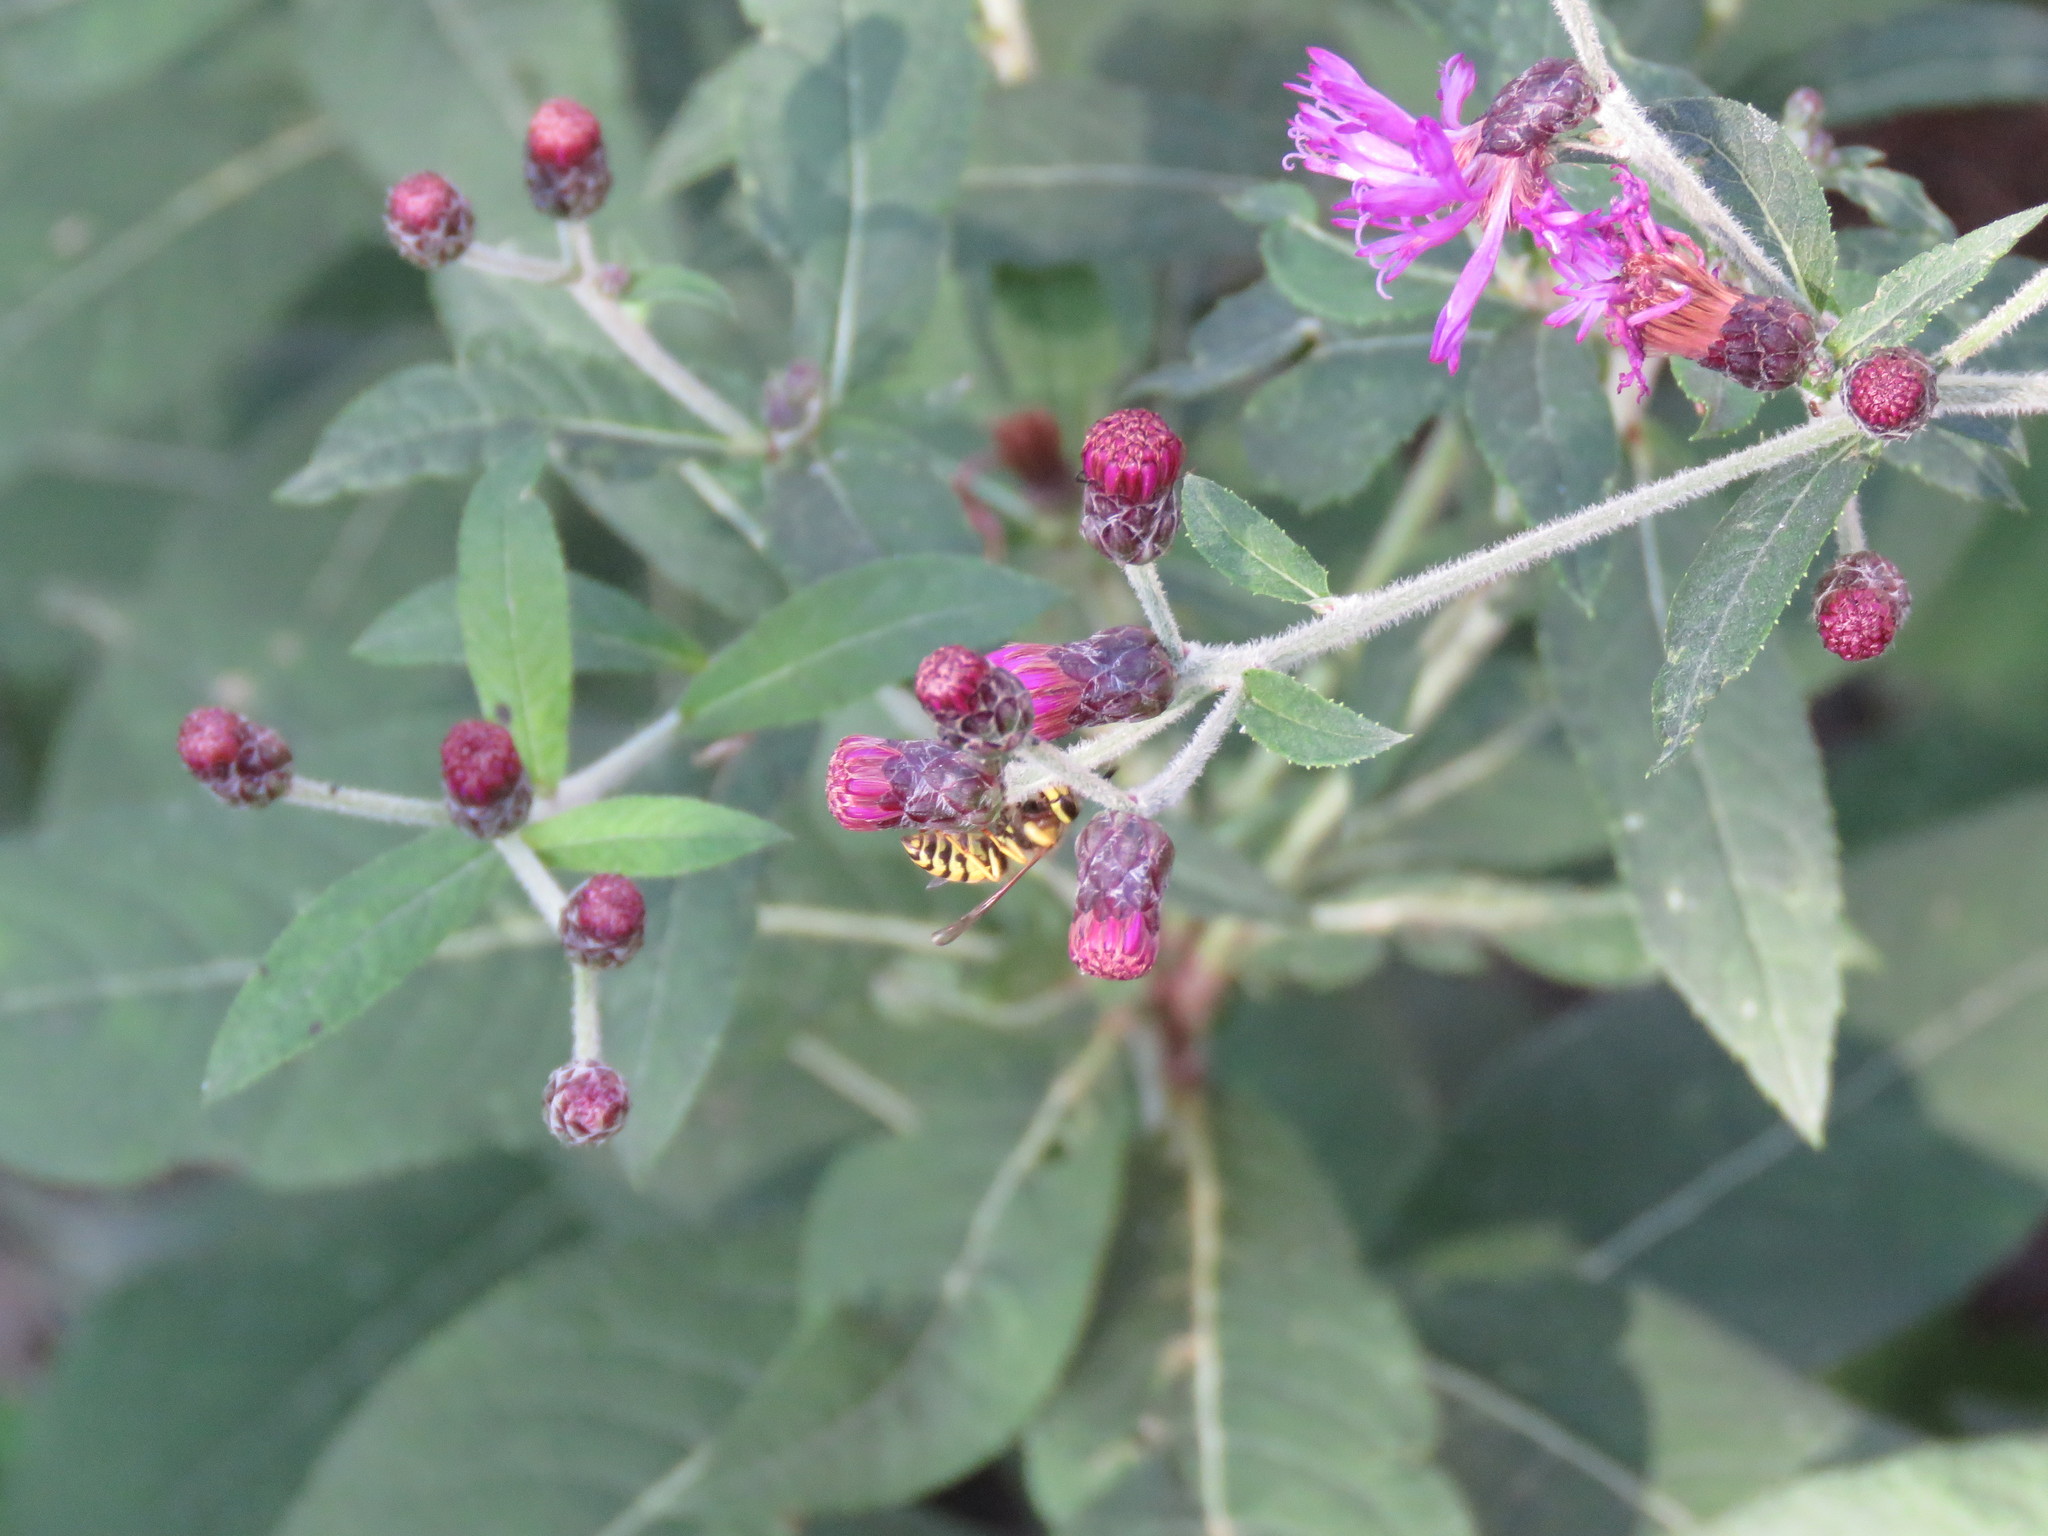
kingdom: Animalia
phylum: Arthropoda
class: Insecta
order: Hymenoptera
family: Vespidae
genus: Vespula
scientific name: Vespula maculifrons
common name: Eastern yellowjacket
